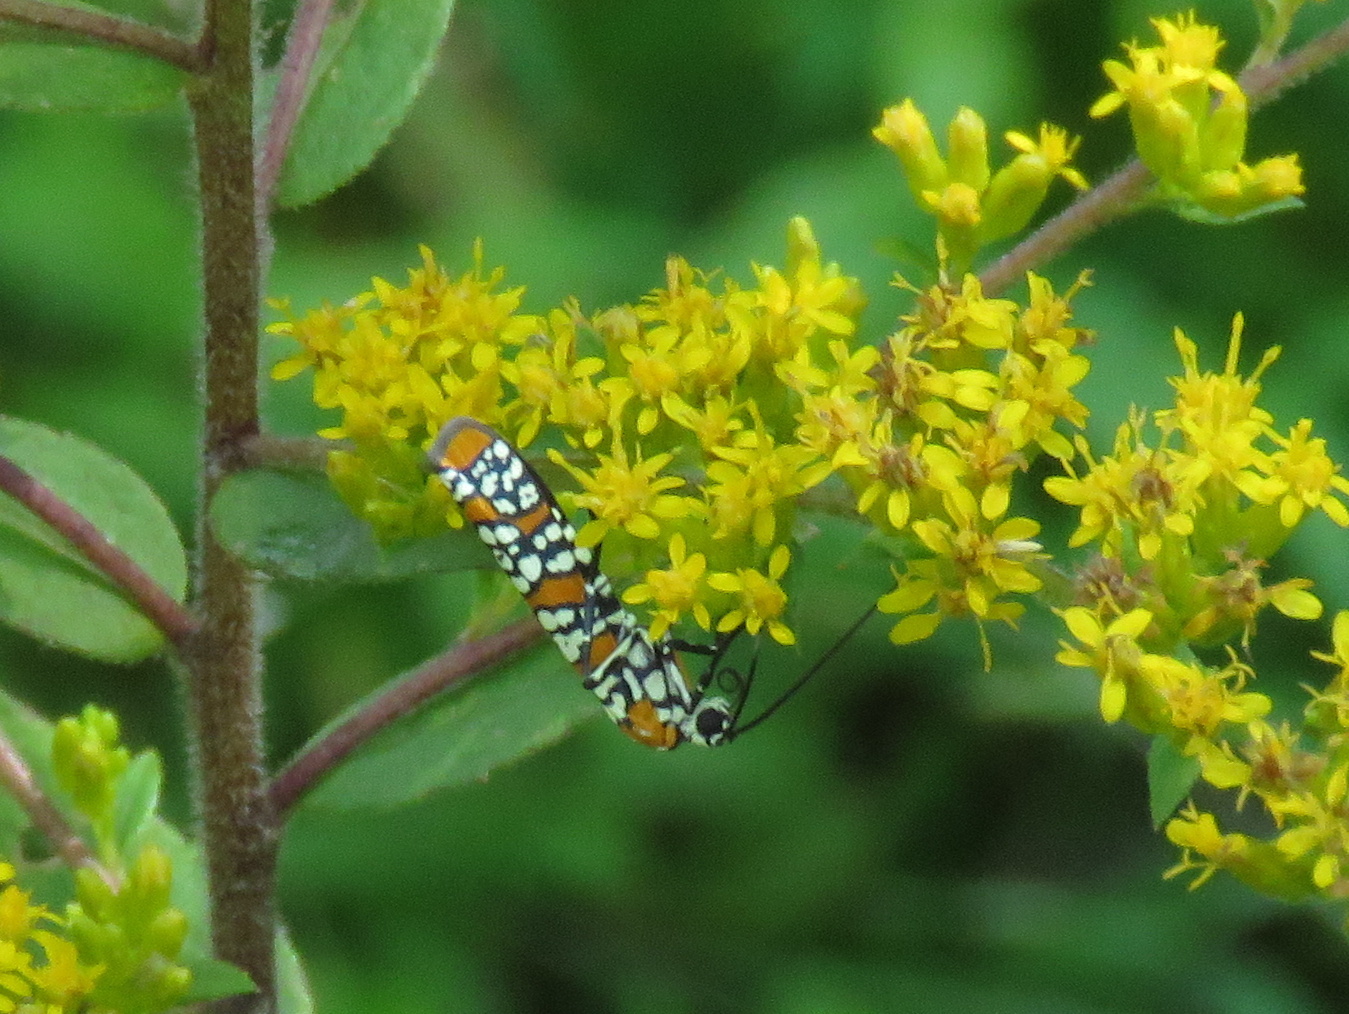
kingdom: Animalia
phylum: Arthropoda
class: Insecta
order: Lepidoptera
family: Attevidae
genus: Atteva
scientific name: Atteva punctella
